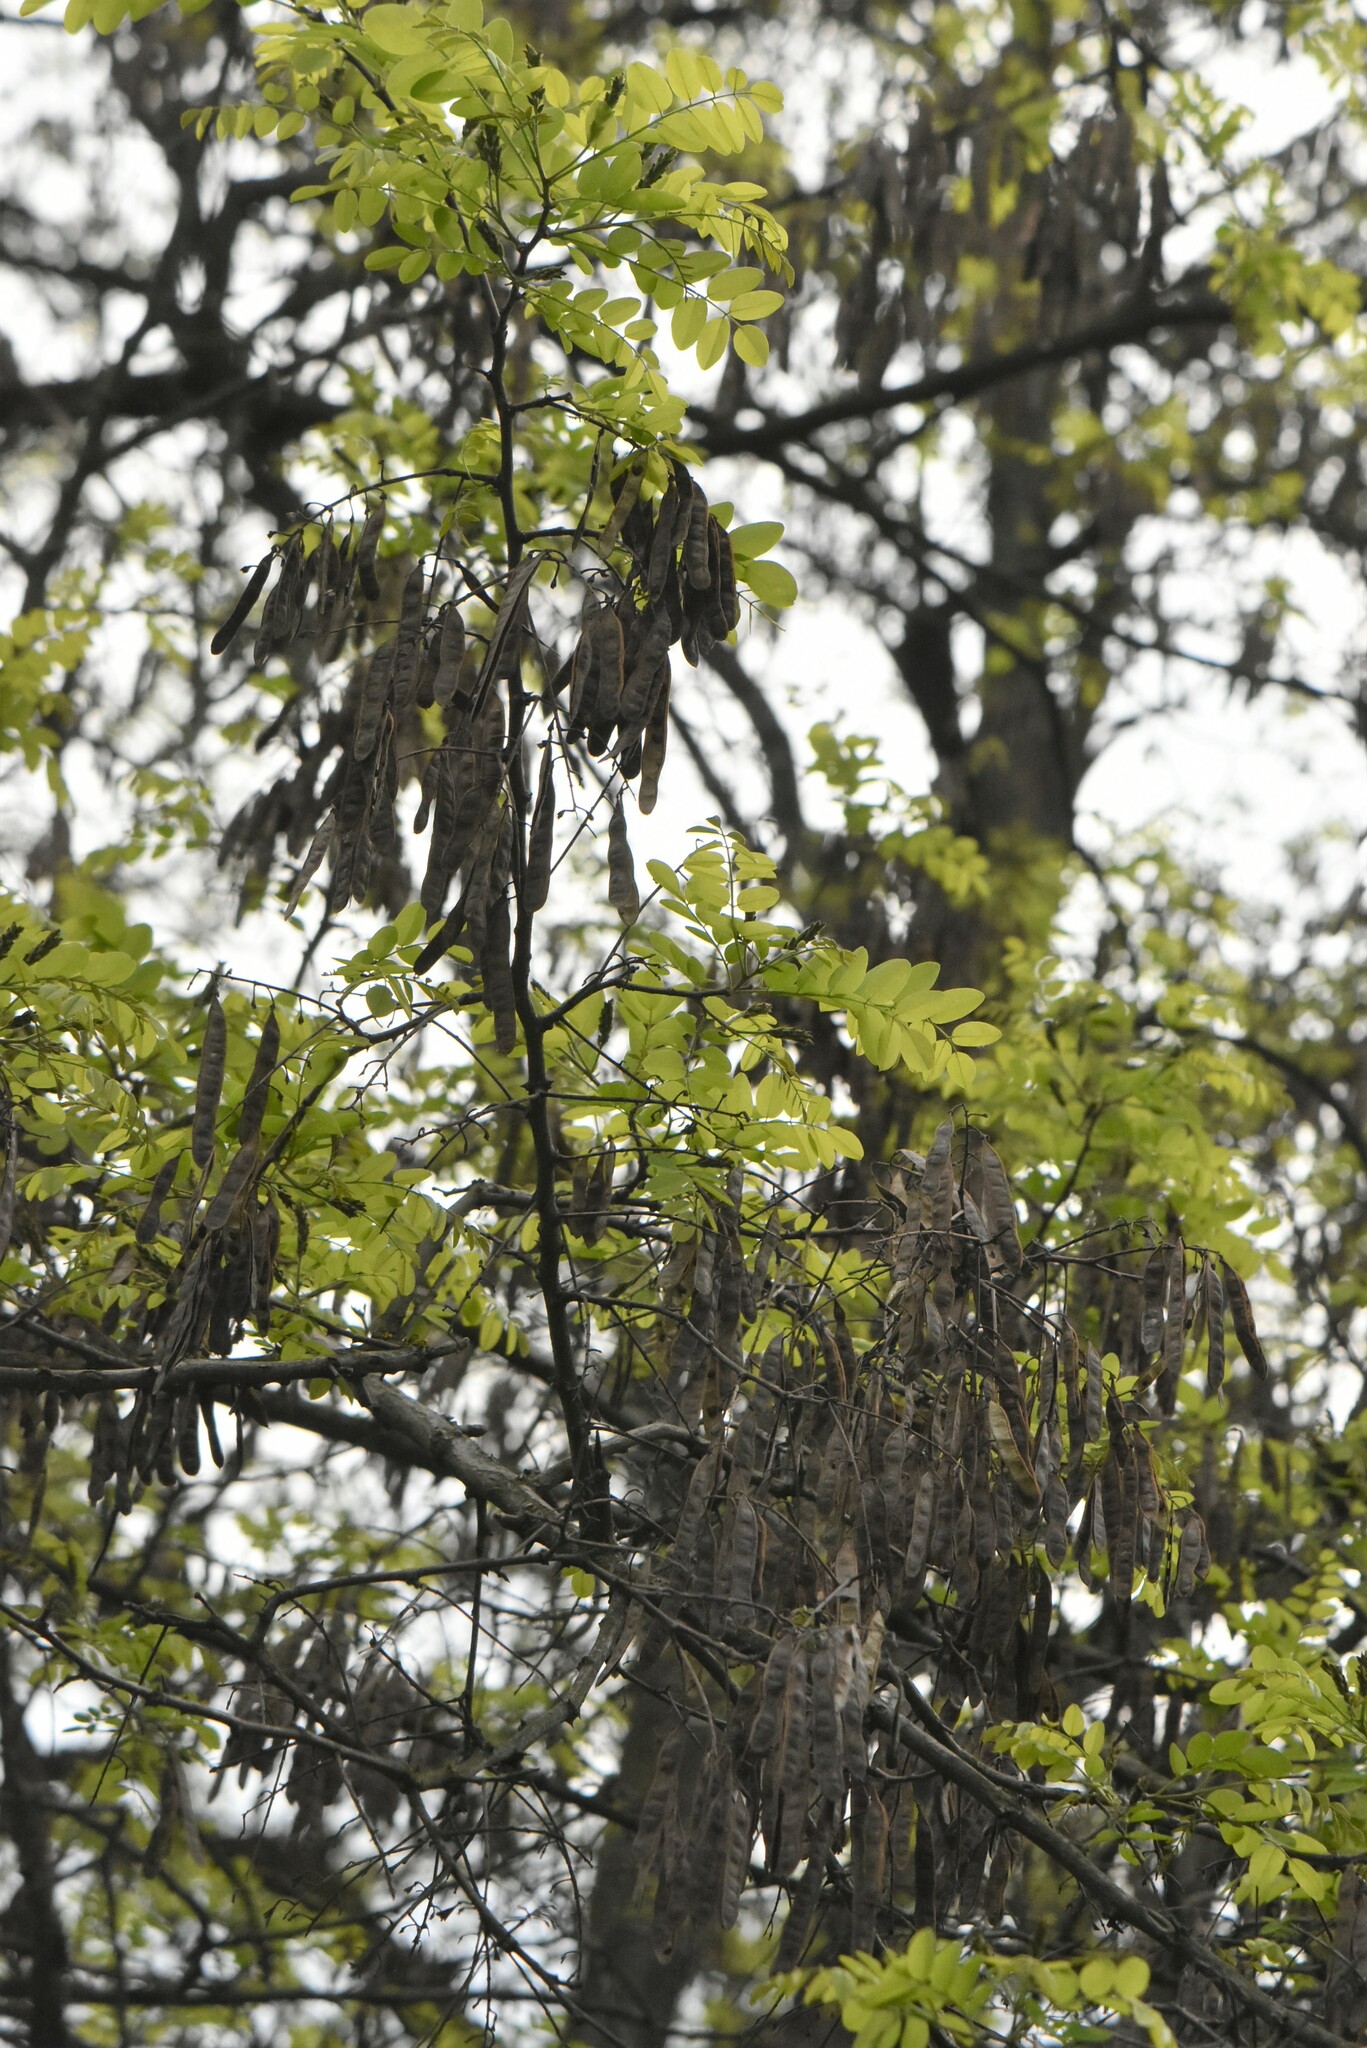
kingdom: Plantae
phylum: Tracheophyta
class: Magnoliopsida
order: Fabales
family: Fabaceae
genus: Robinia
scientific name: Robinia pseudoacacia
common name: Black locust
